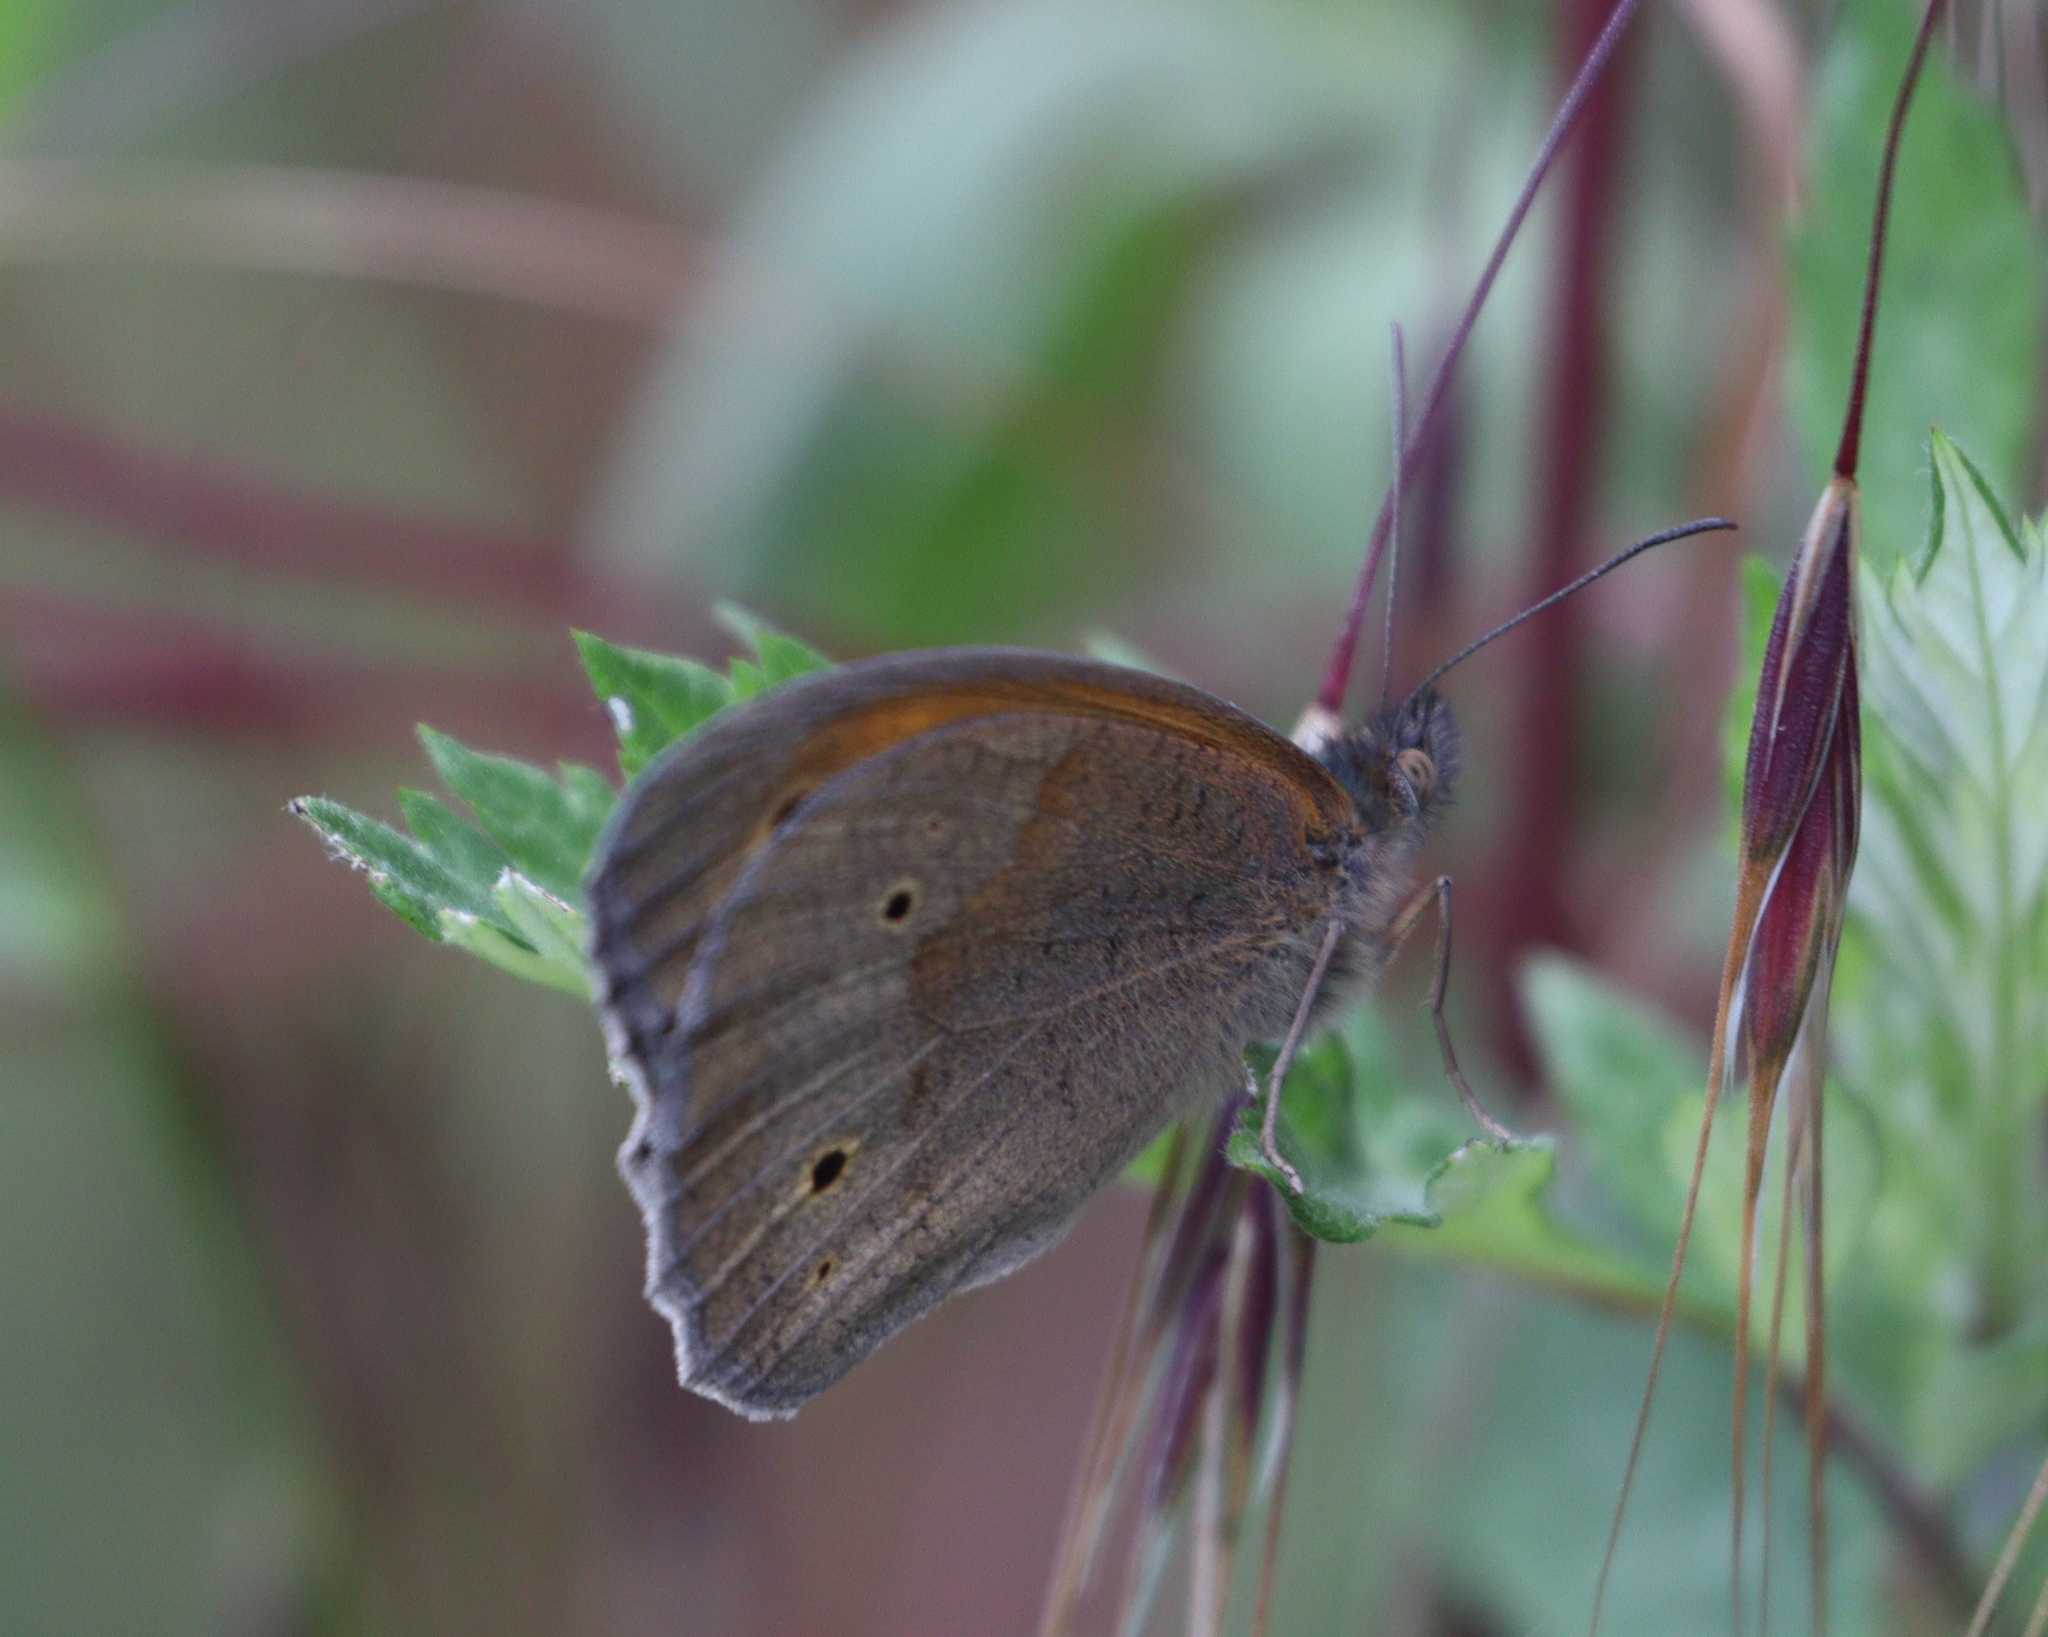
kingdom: Animalia
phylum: Arthropoda
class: Insecta
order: Lepidoptera
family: Nymphalidae
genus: Maniola
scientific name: Maniola jurtina
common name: Meadow brown
